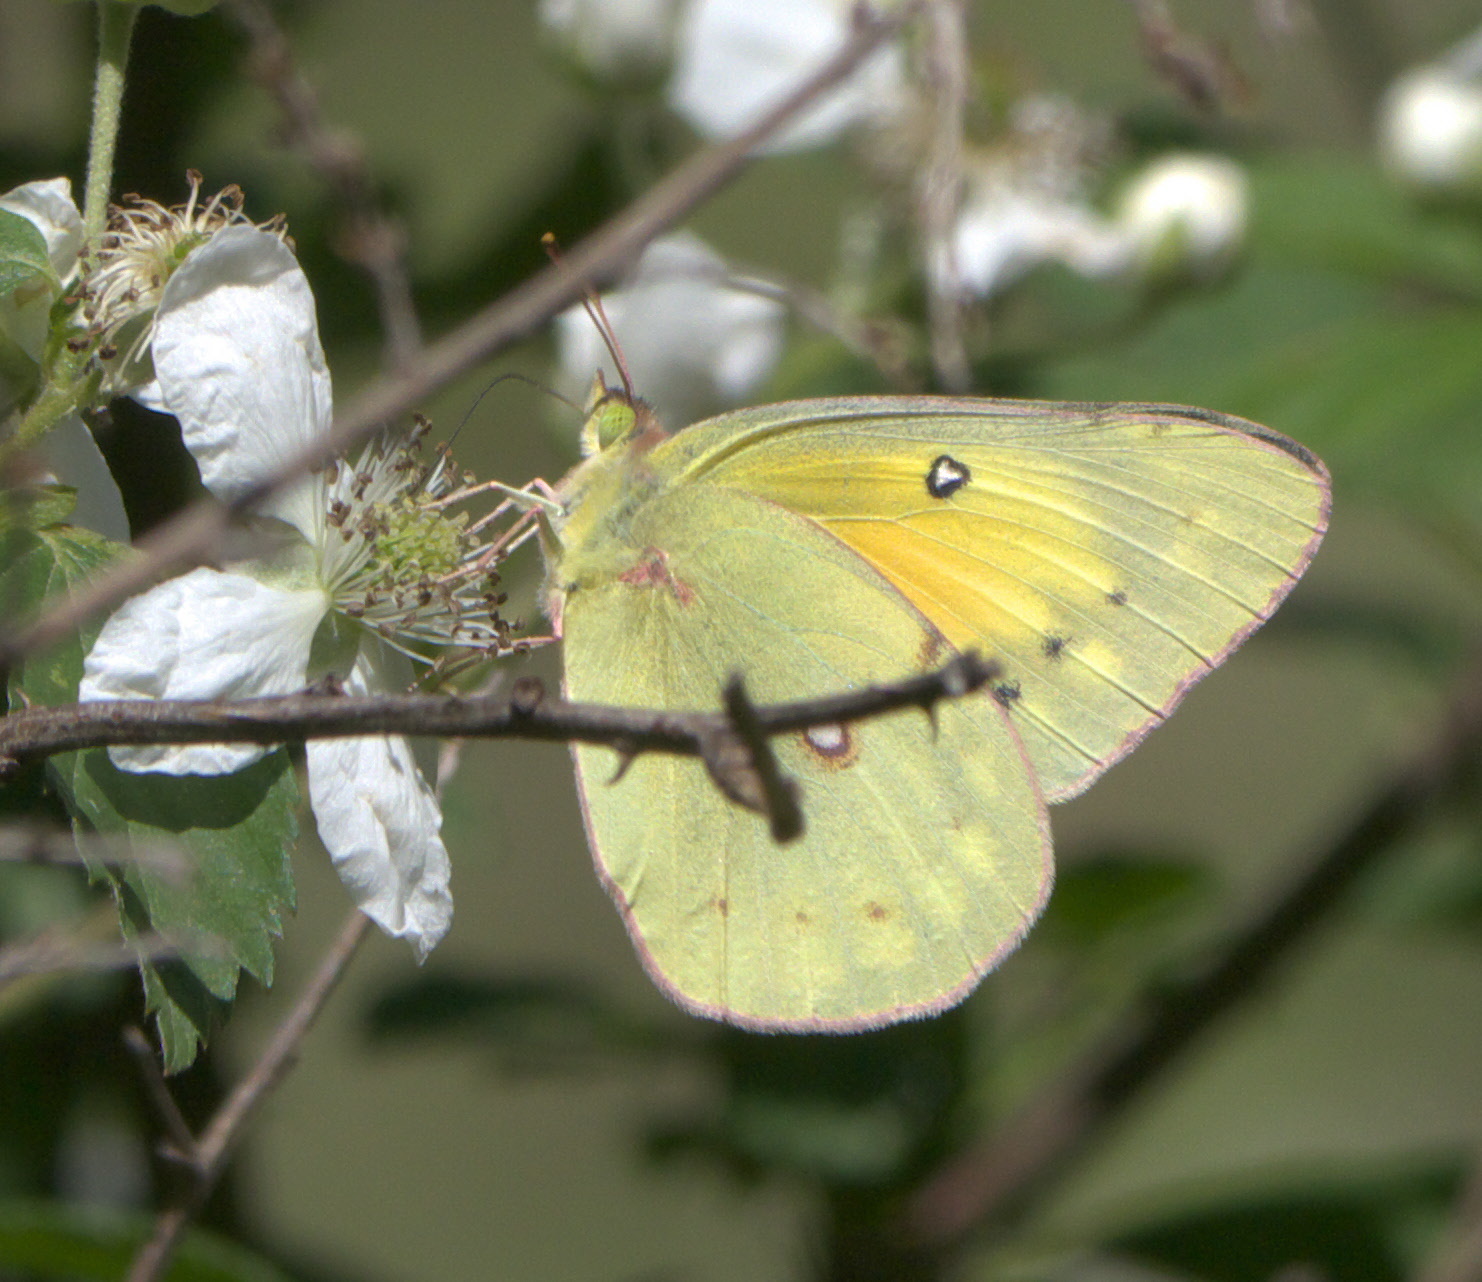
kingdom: Animalia
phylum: Arthropoda
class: Insecta
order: Lepidoptera
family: Pieridae
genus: Colias
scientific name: Colias eurytheme
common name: Alfalfa butterfly
